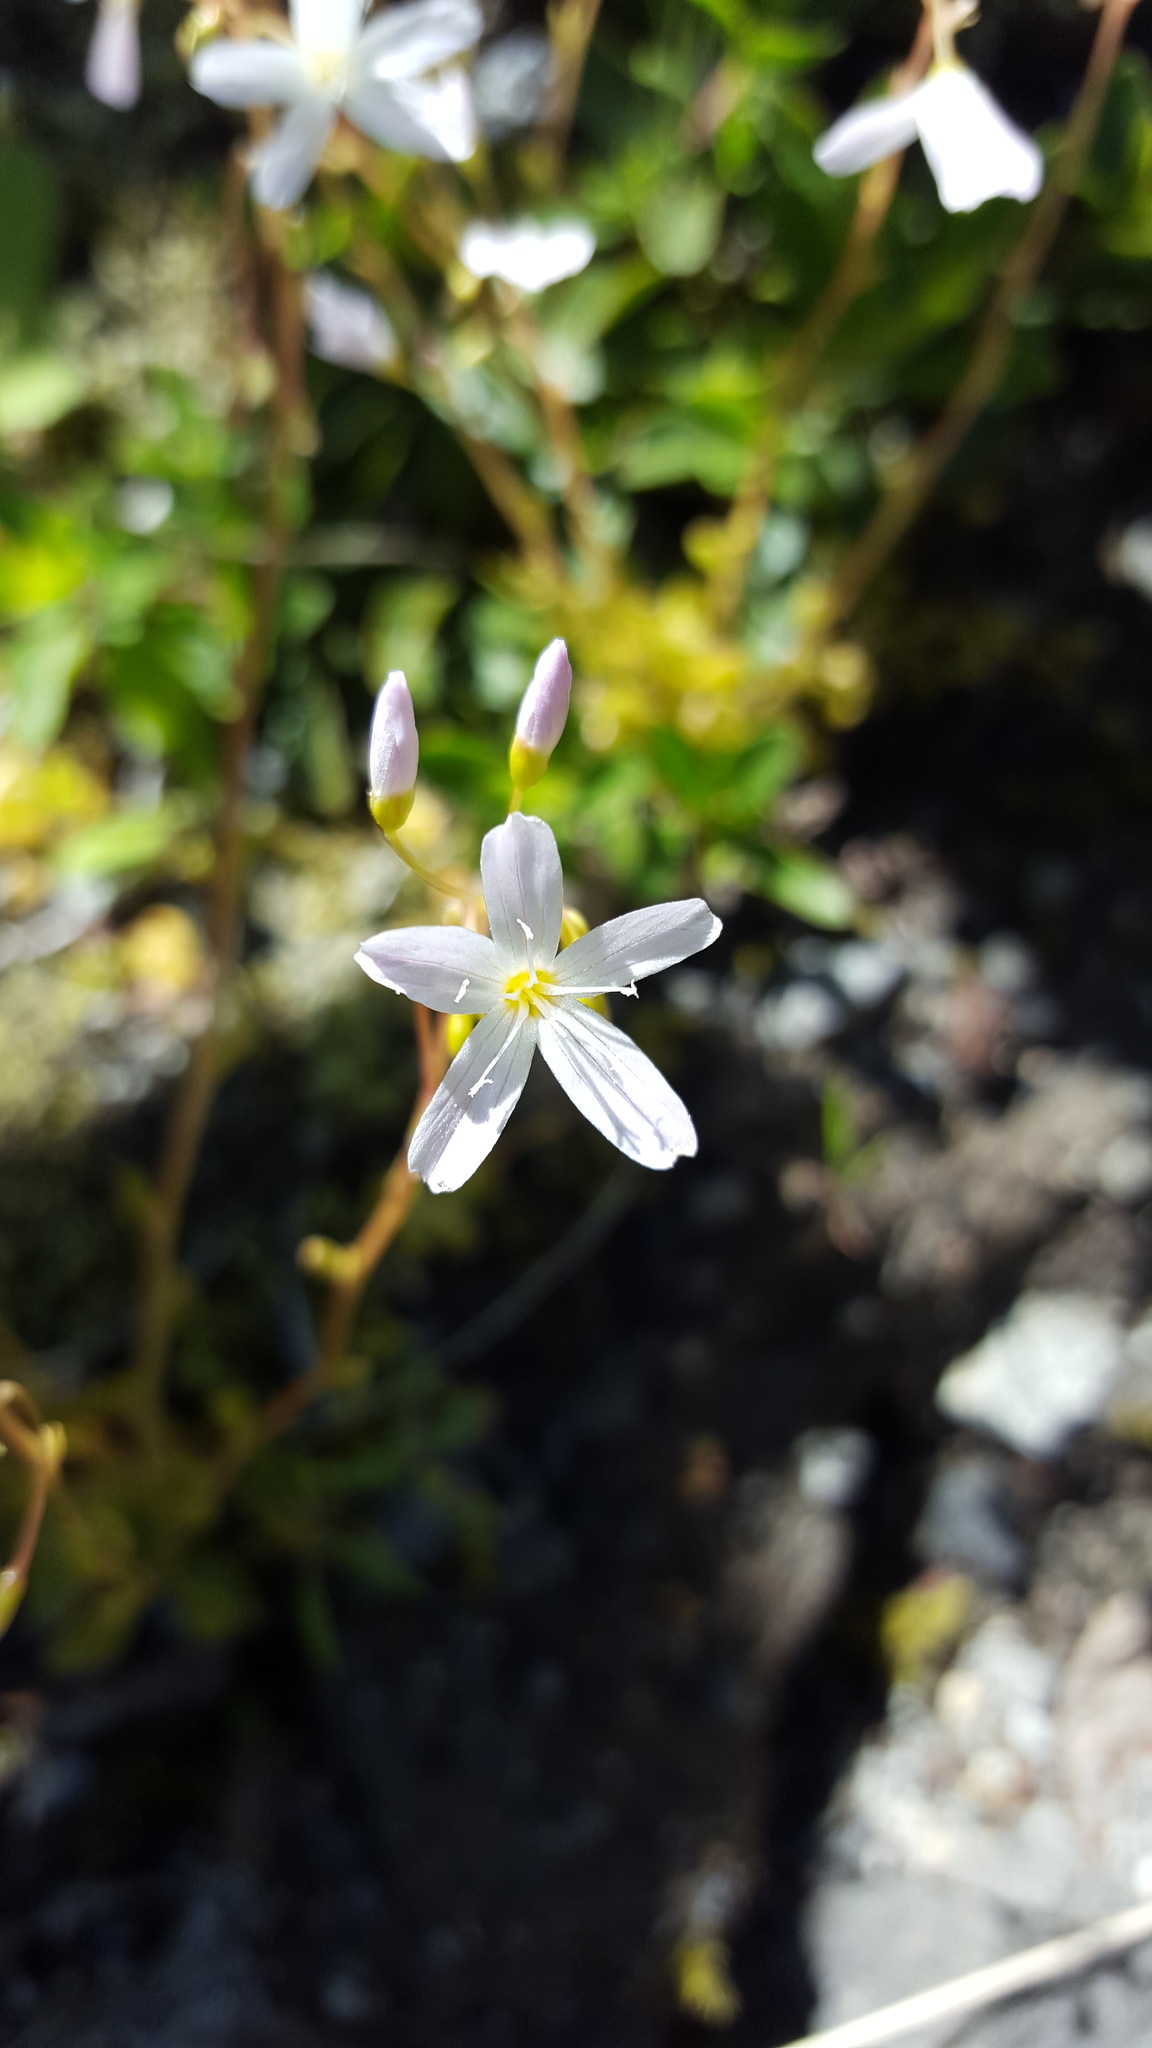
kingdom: Plantae
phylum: Tracheophyta
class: Magnoliopsida
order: Caryophyllales
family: Montiaceae
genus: Montia
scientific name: Montia parvifolia
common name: Small-leaved blinks
